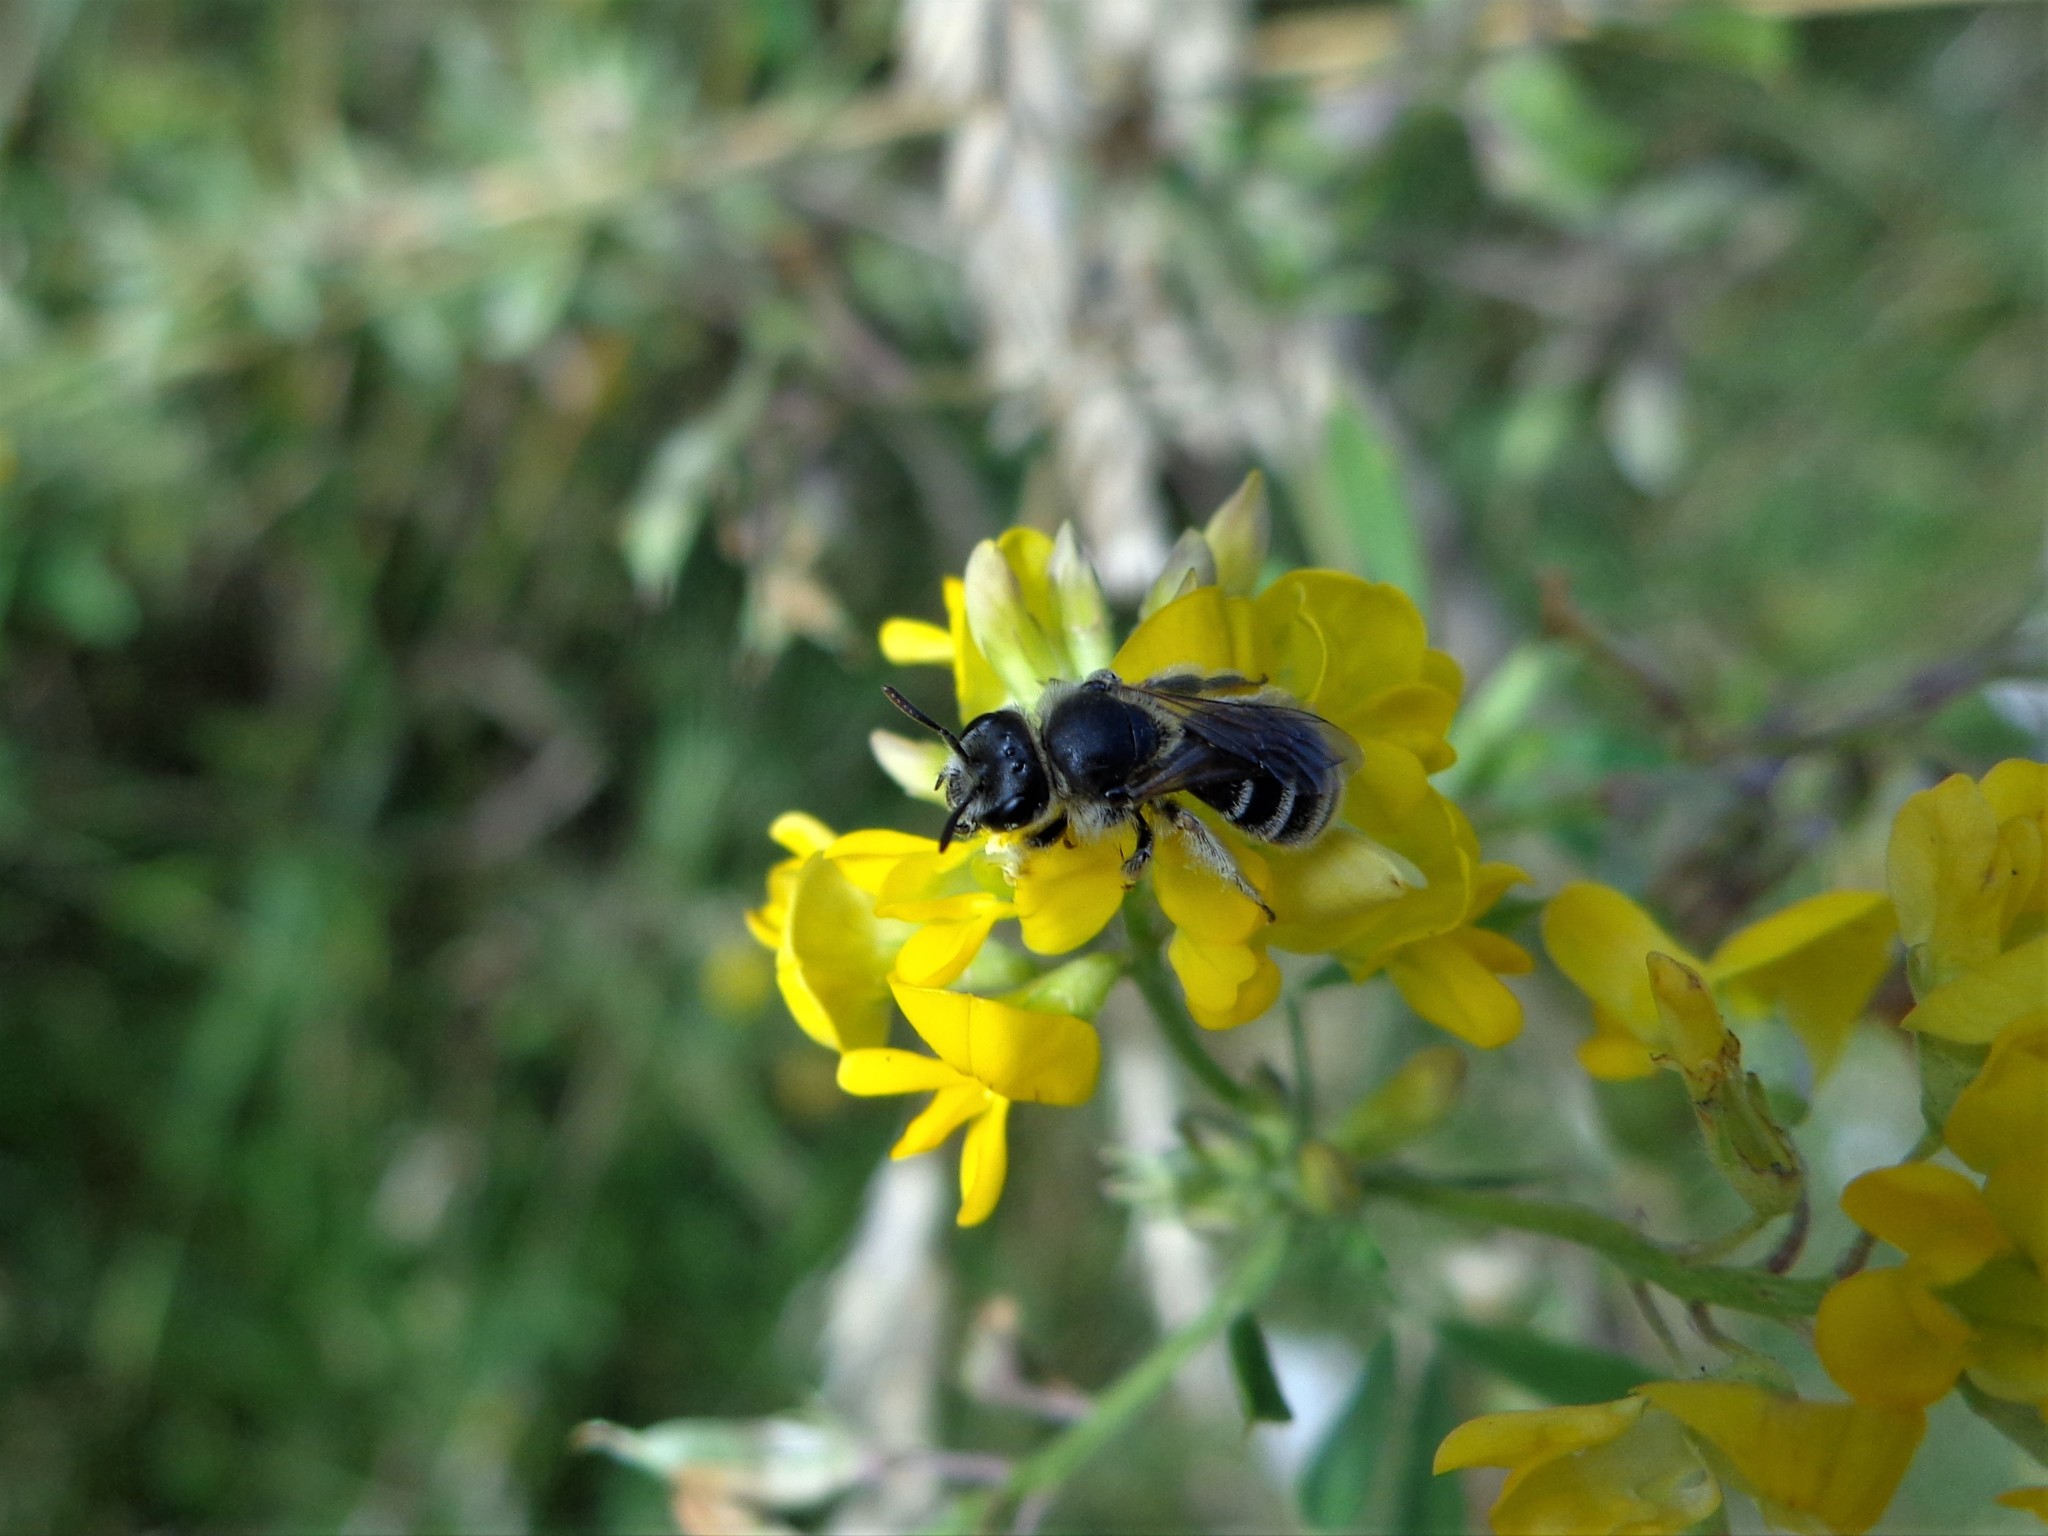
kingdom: Animalia
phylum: Arthropoda
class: Insecta
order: Hymenoptera
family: Halictidae
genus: Rophites
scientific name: Rophites canus
